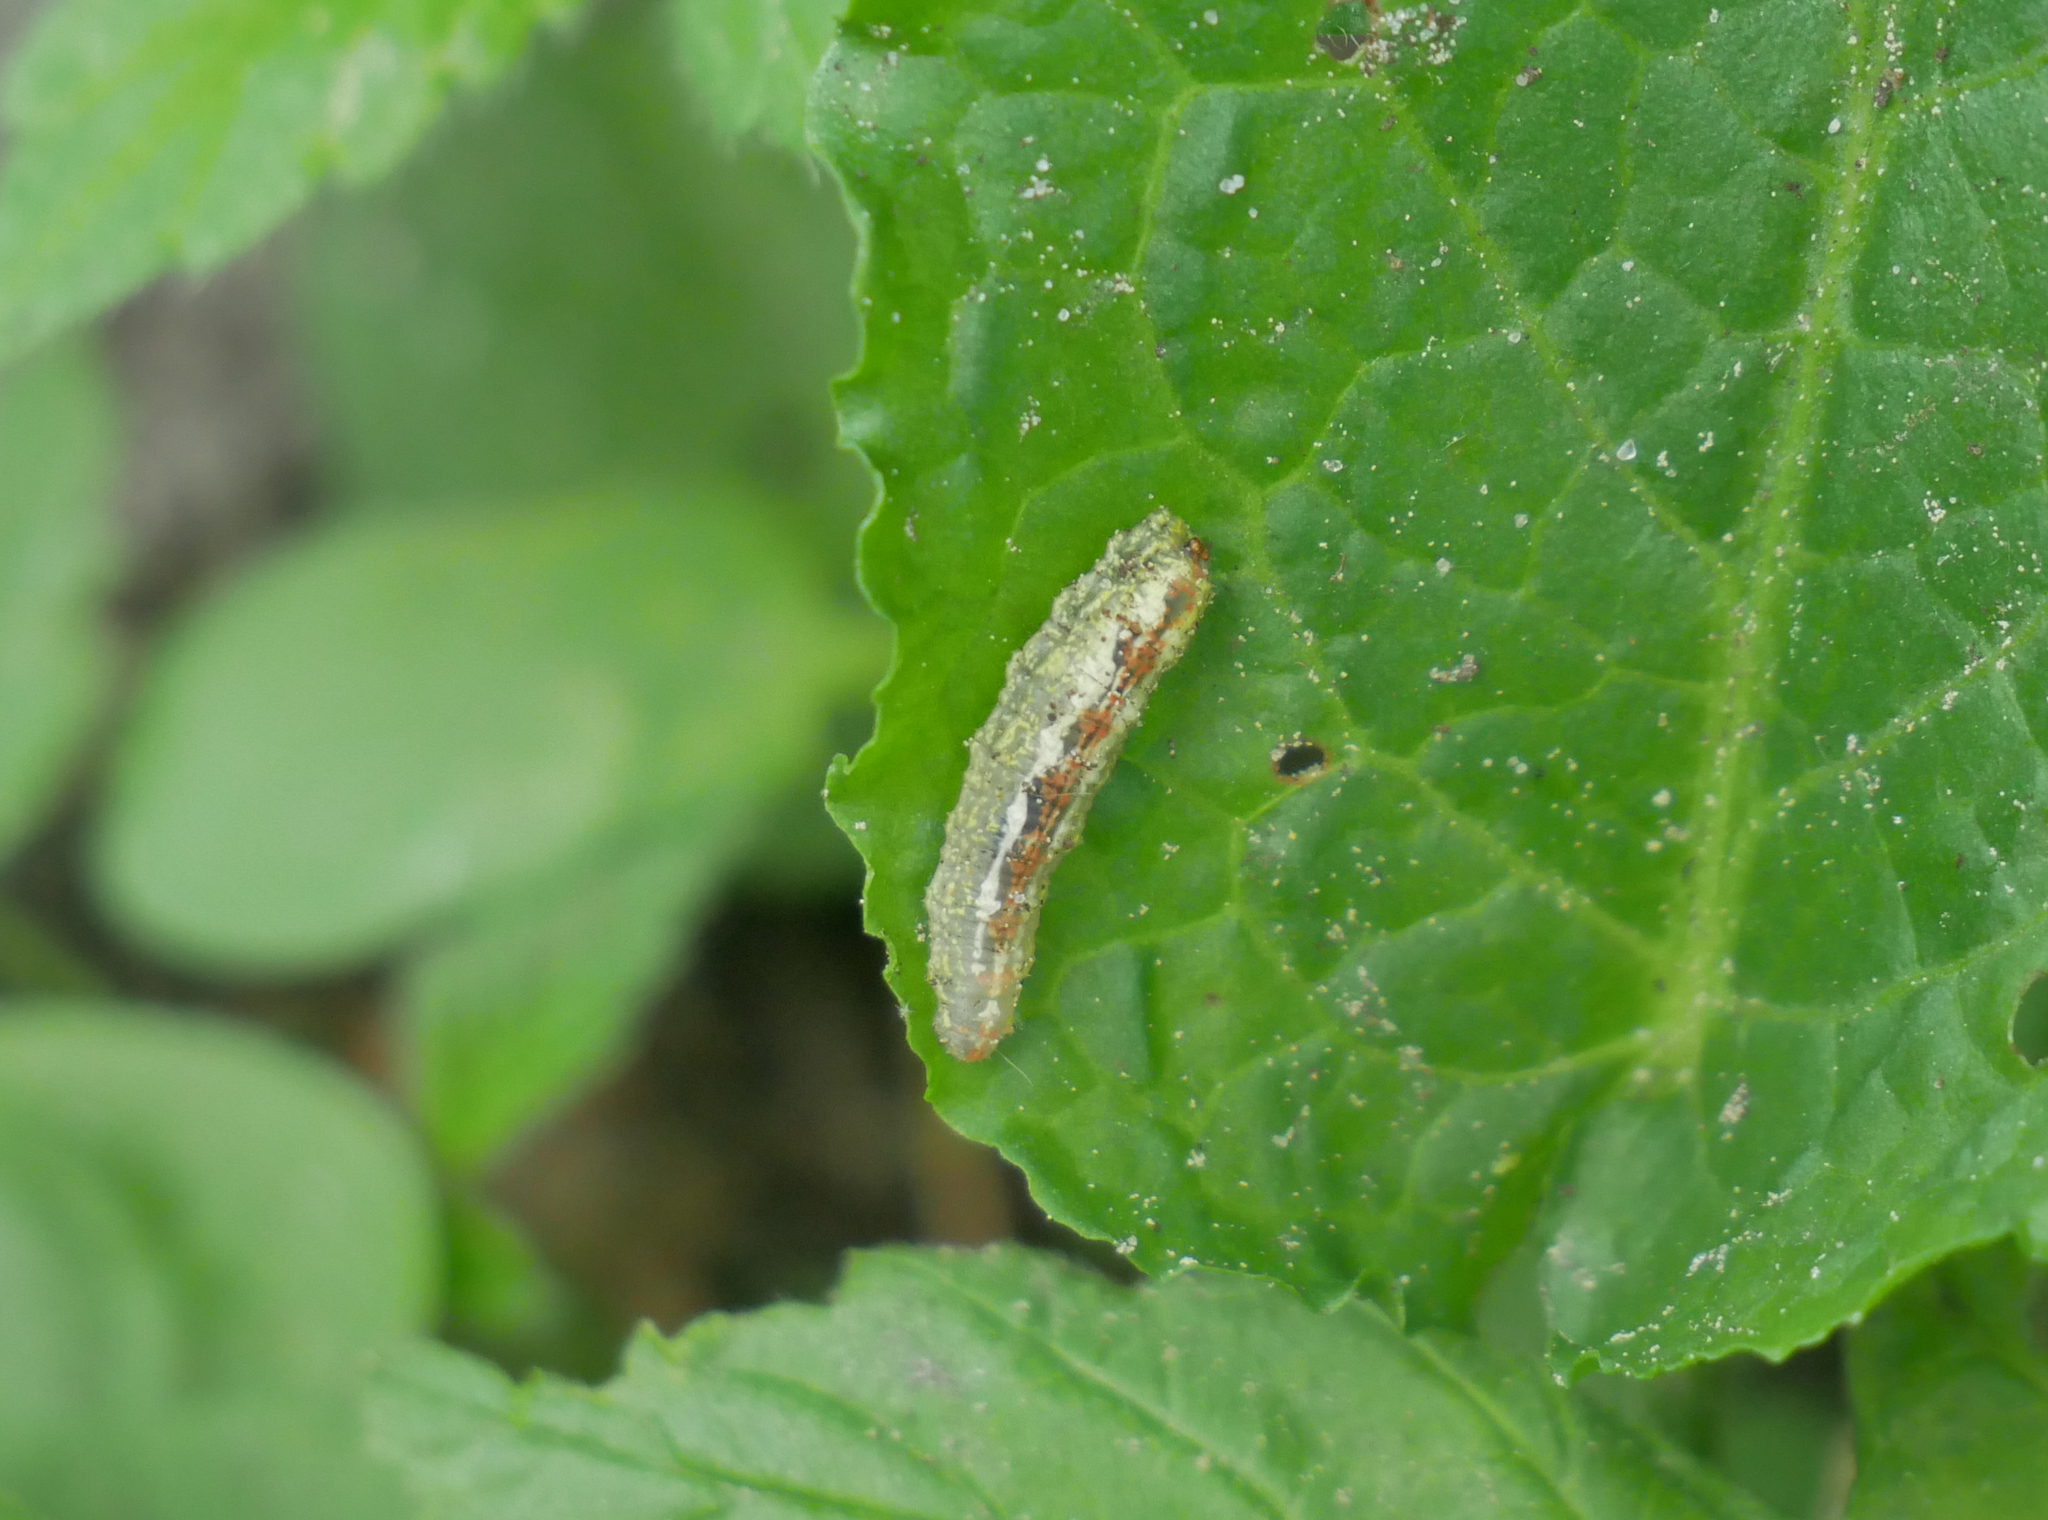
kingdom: Animalia
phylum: Arthropoda
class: Insecta
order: Diptera
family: Syrphidae
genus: Syrphus
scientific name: Syrphus
